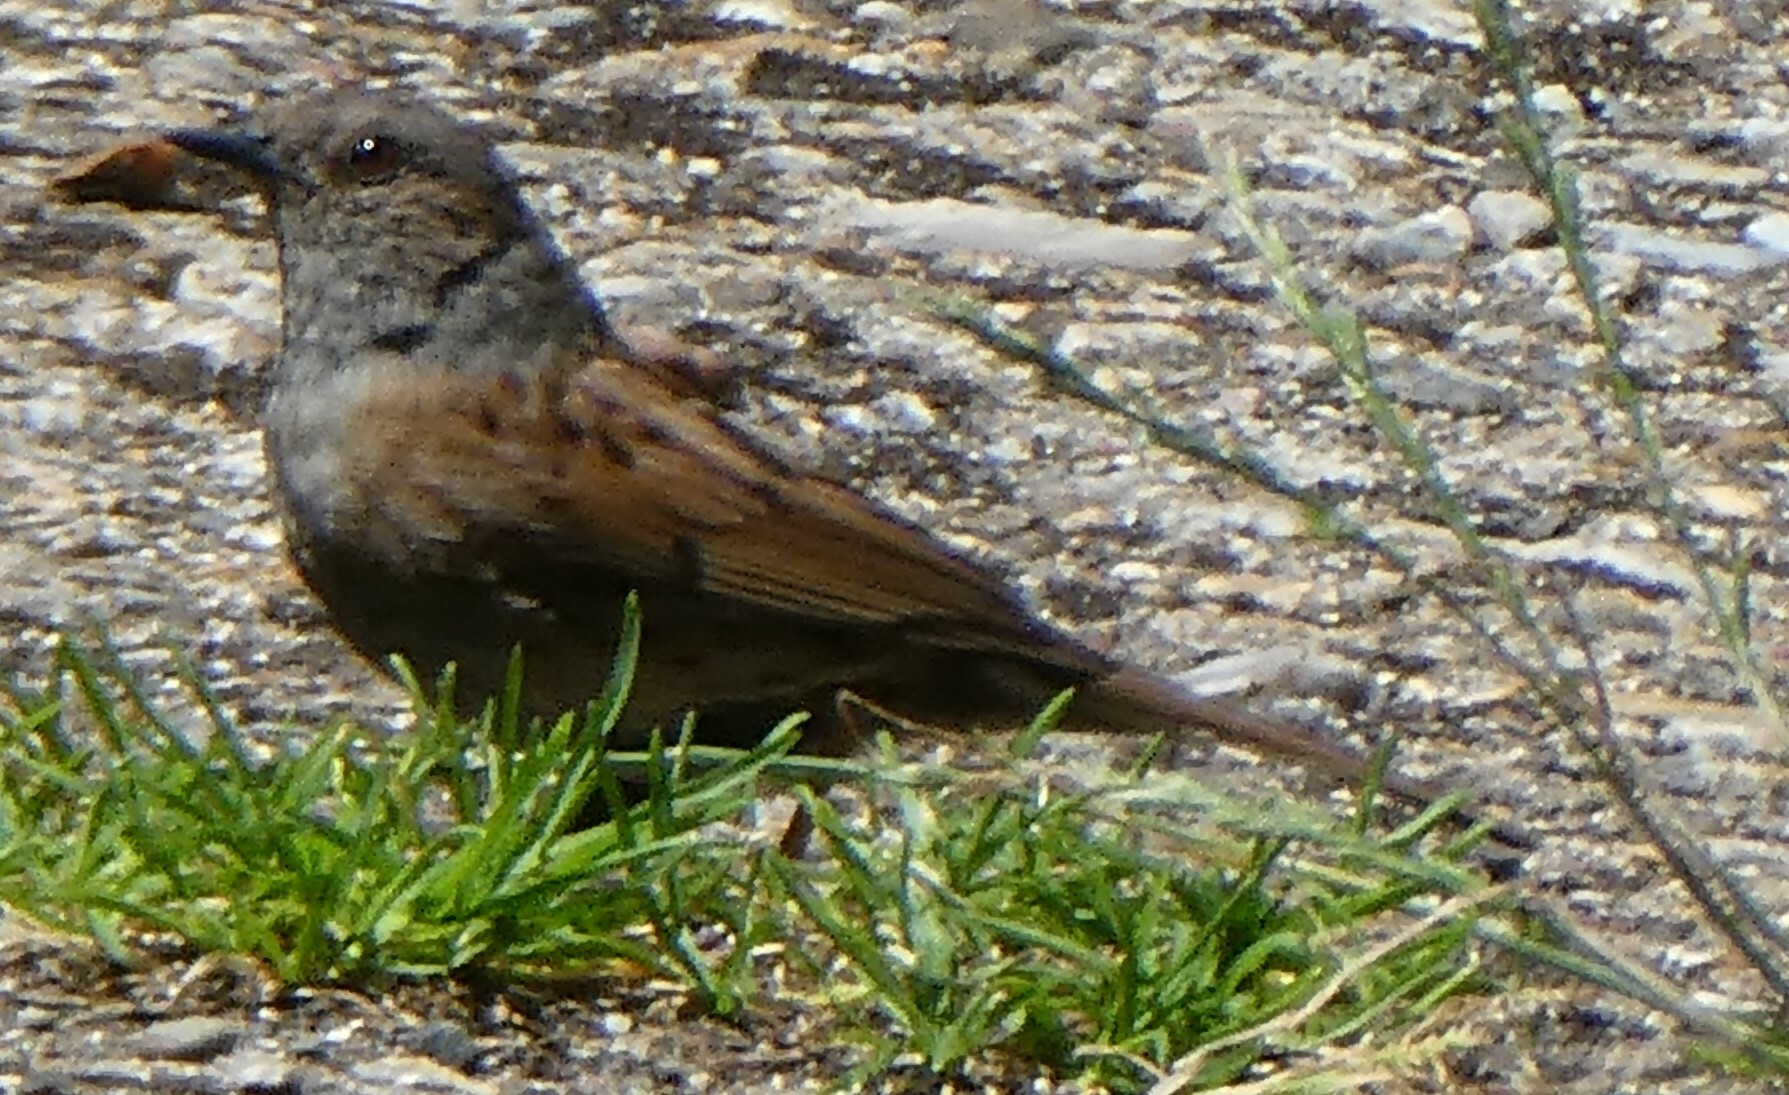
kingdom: Animalia
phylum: Chordata
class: Aves
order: Passeriformes
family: Prunellidae
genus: Prunella
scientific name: Prunella modularis
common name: Dunnock
